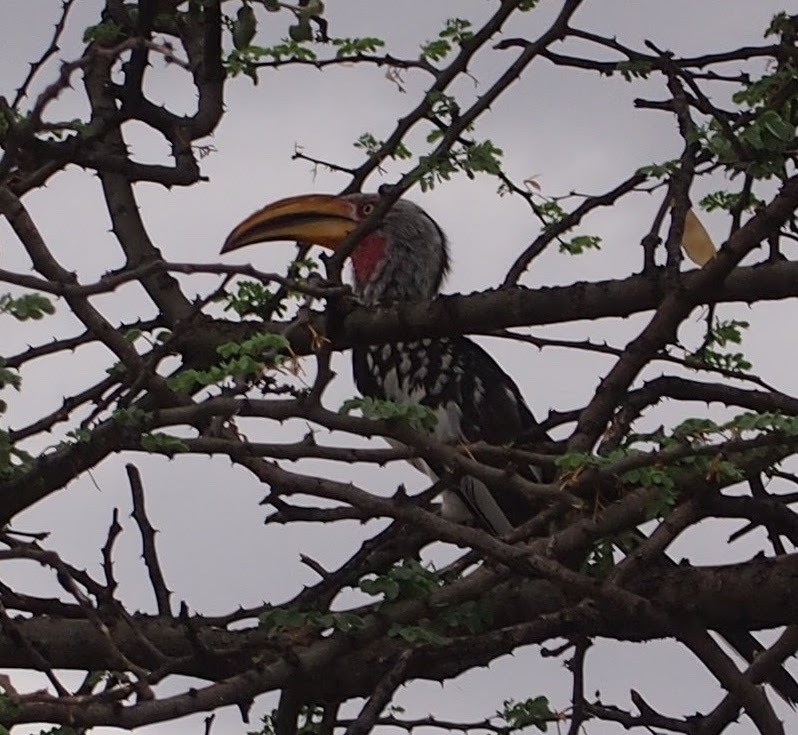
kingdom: Animalia
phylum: Chordata
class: Aves
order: Bucerotiformes
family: Bucerotidae
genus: Tockus
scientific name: Tockus leucomelas
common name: Southern yellow-billed hornbill
